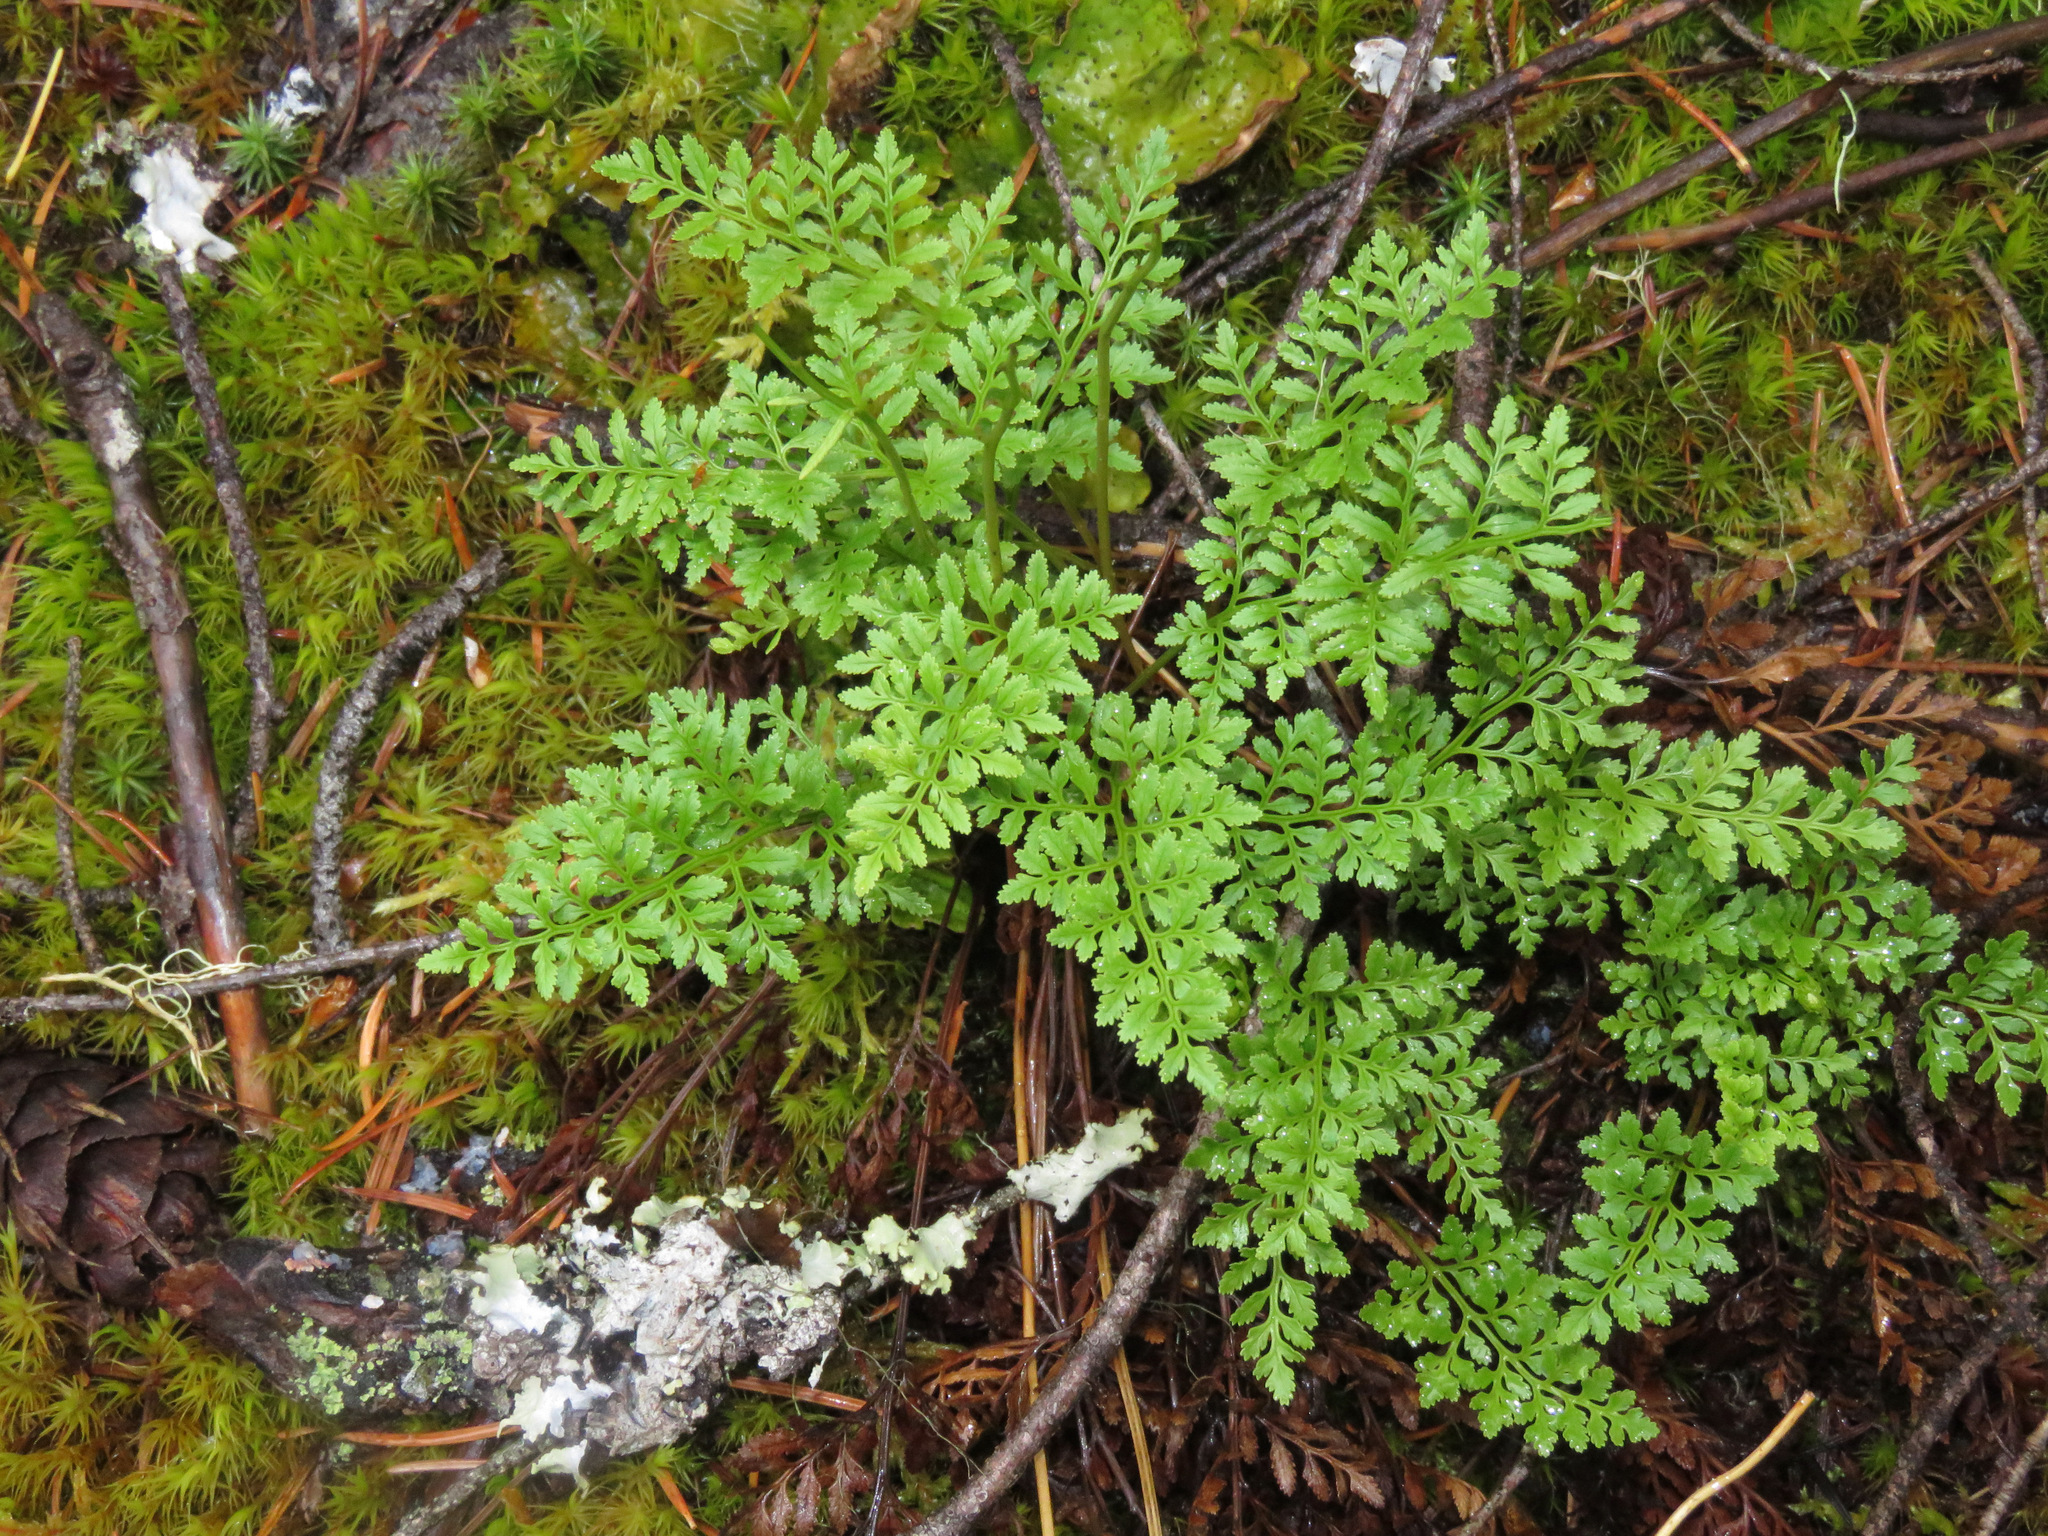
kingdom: Plantae
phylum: Tracheophyta
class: Polypodiopsida
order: Polypodiales
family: Pteridaceae
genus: Cryptogramma
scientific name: Cryptogramma acrostichoides
